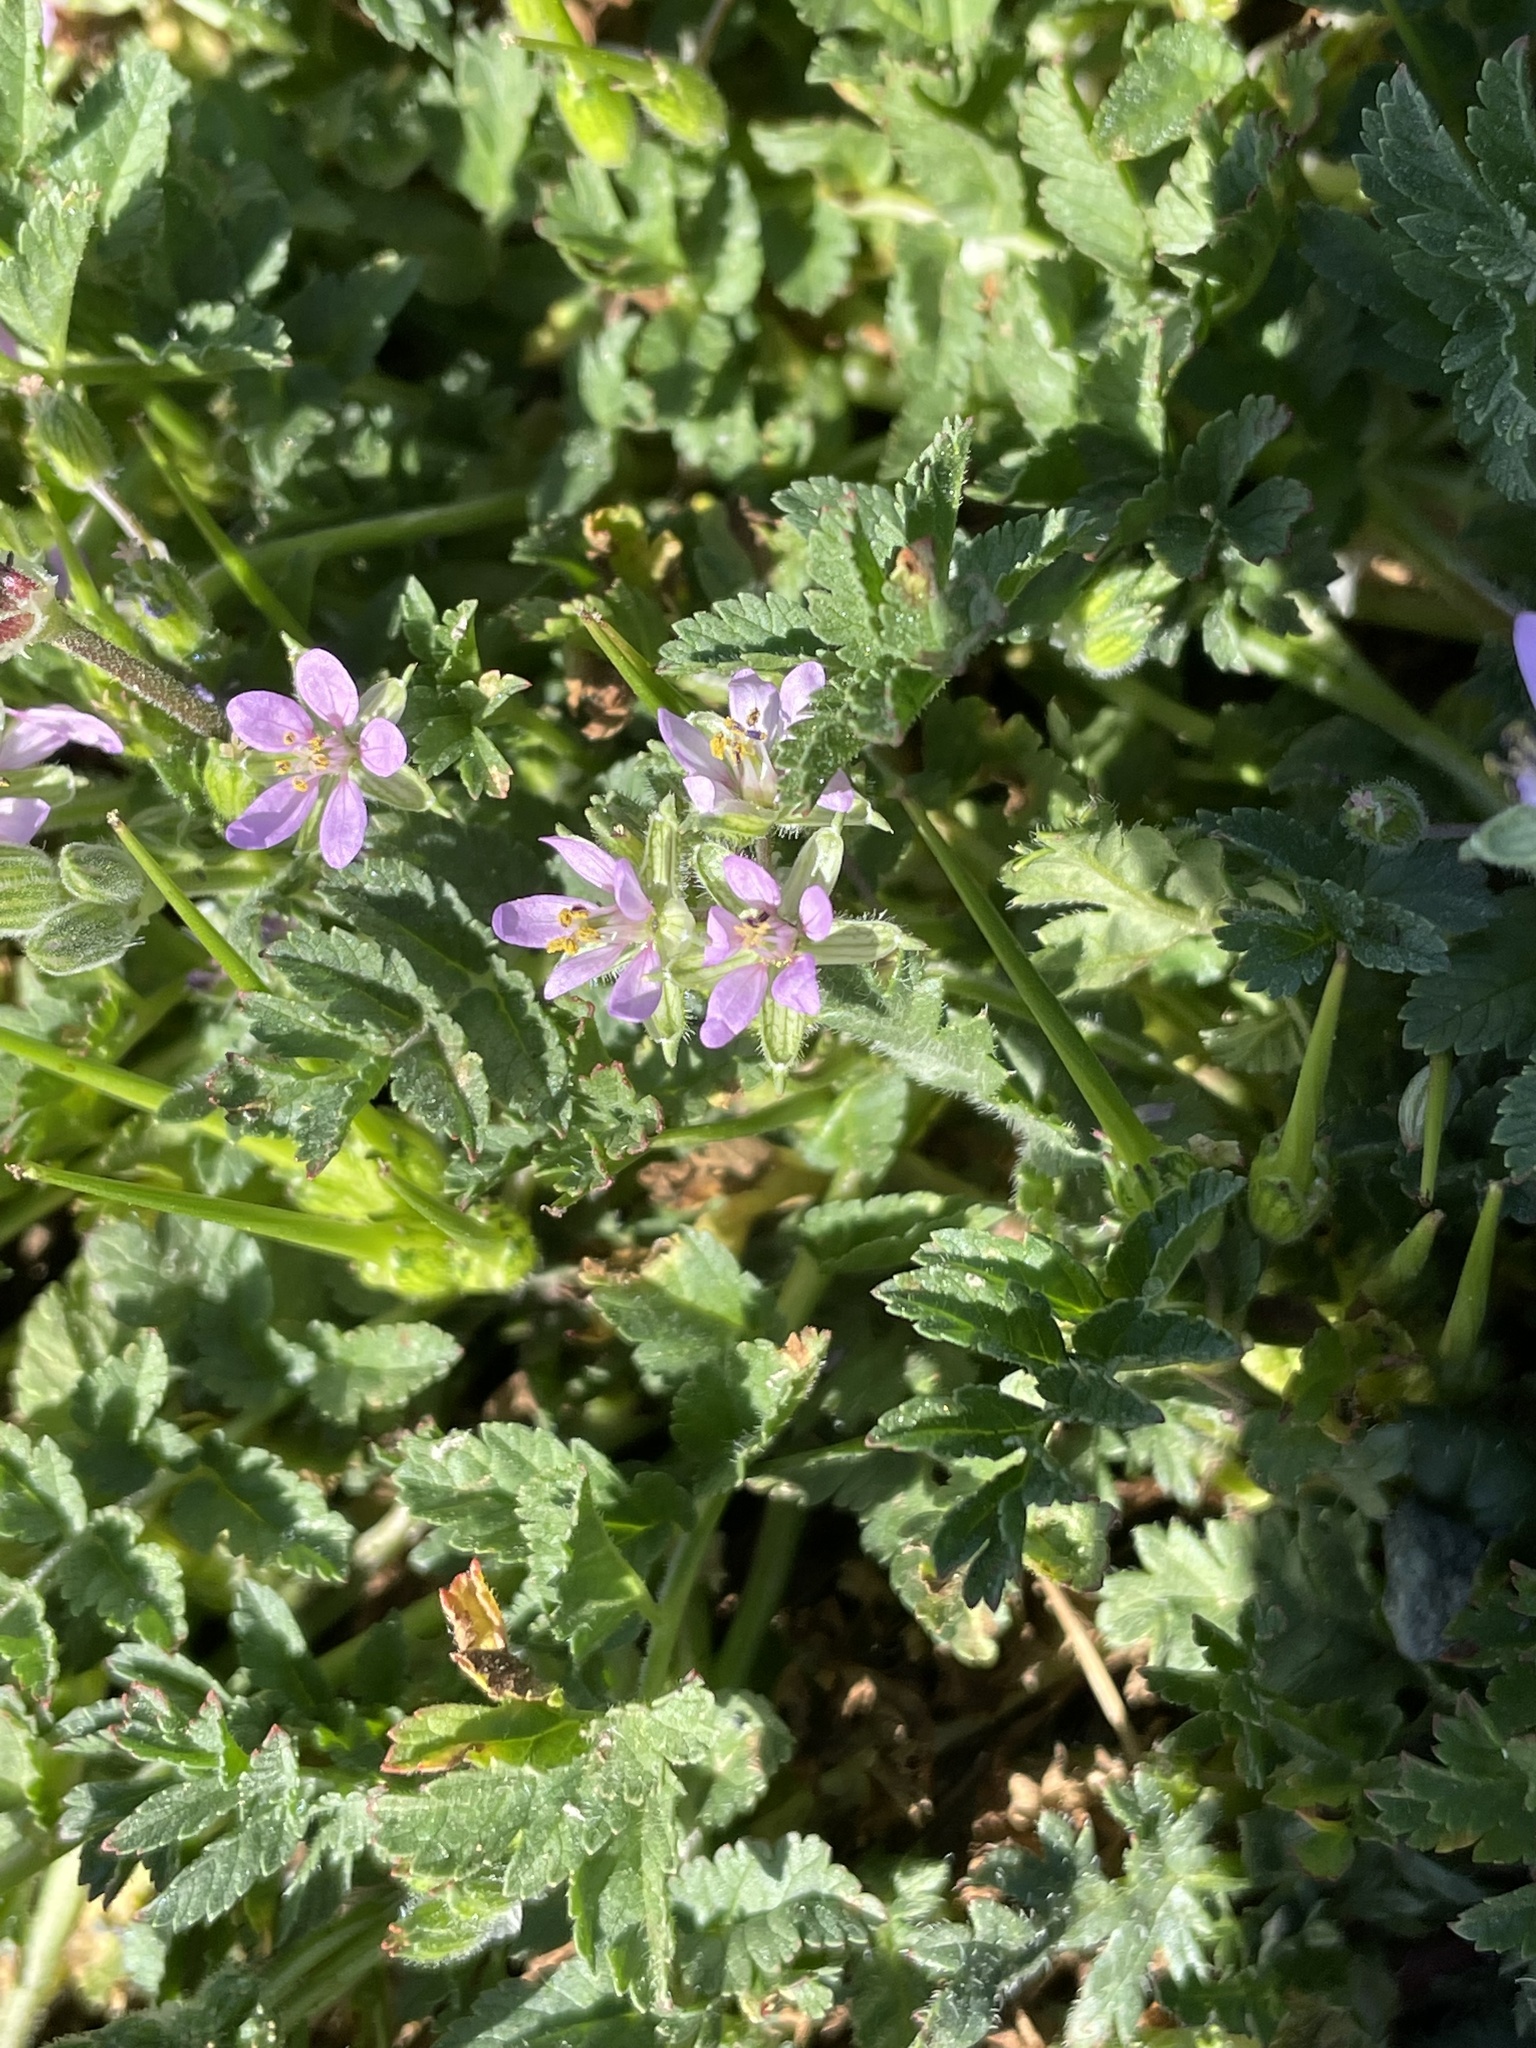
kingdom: Plantae
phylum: Tracheophyta
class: Magnoliopsida
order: Geraniales
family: Geraniaceae
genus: Erodium
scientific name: Erodium moschatum
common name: Musk stork's-bill
